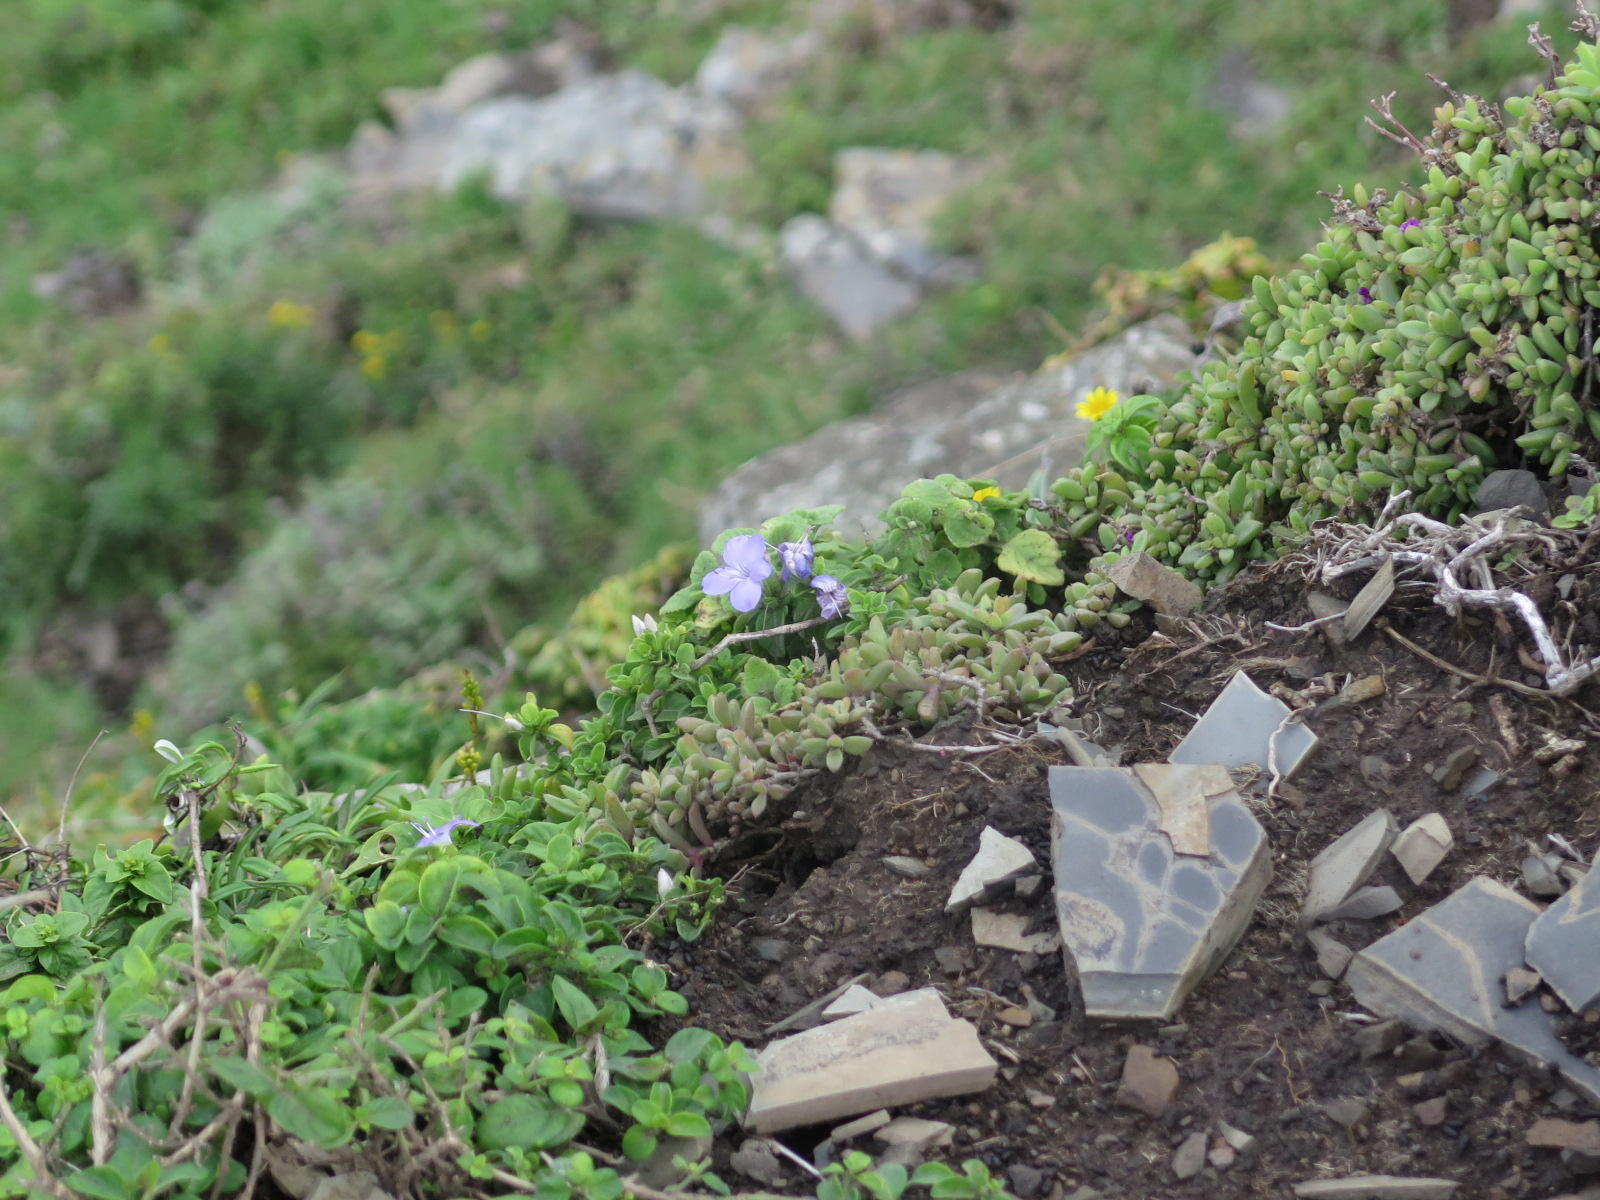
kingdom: Plantae
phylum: Tracheophyta
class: Magnoliopsida
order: Caryophyllales
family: Aizoaceae
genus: Delosperma
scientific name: Delosperma stenandrum
